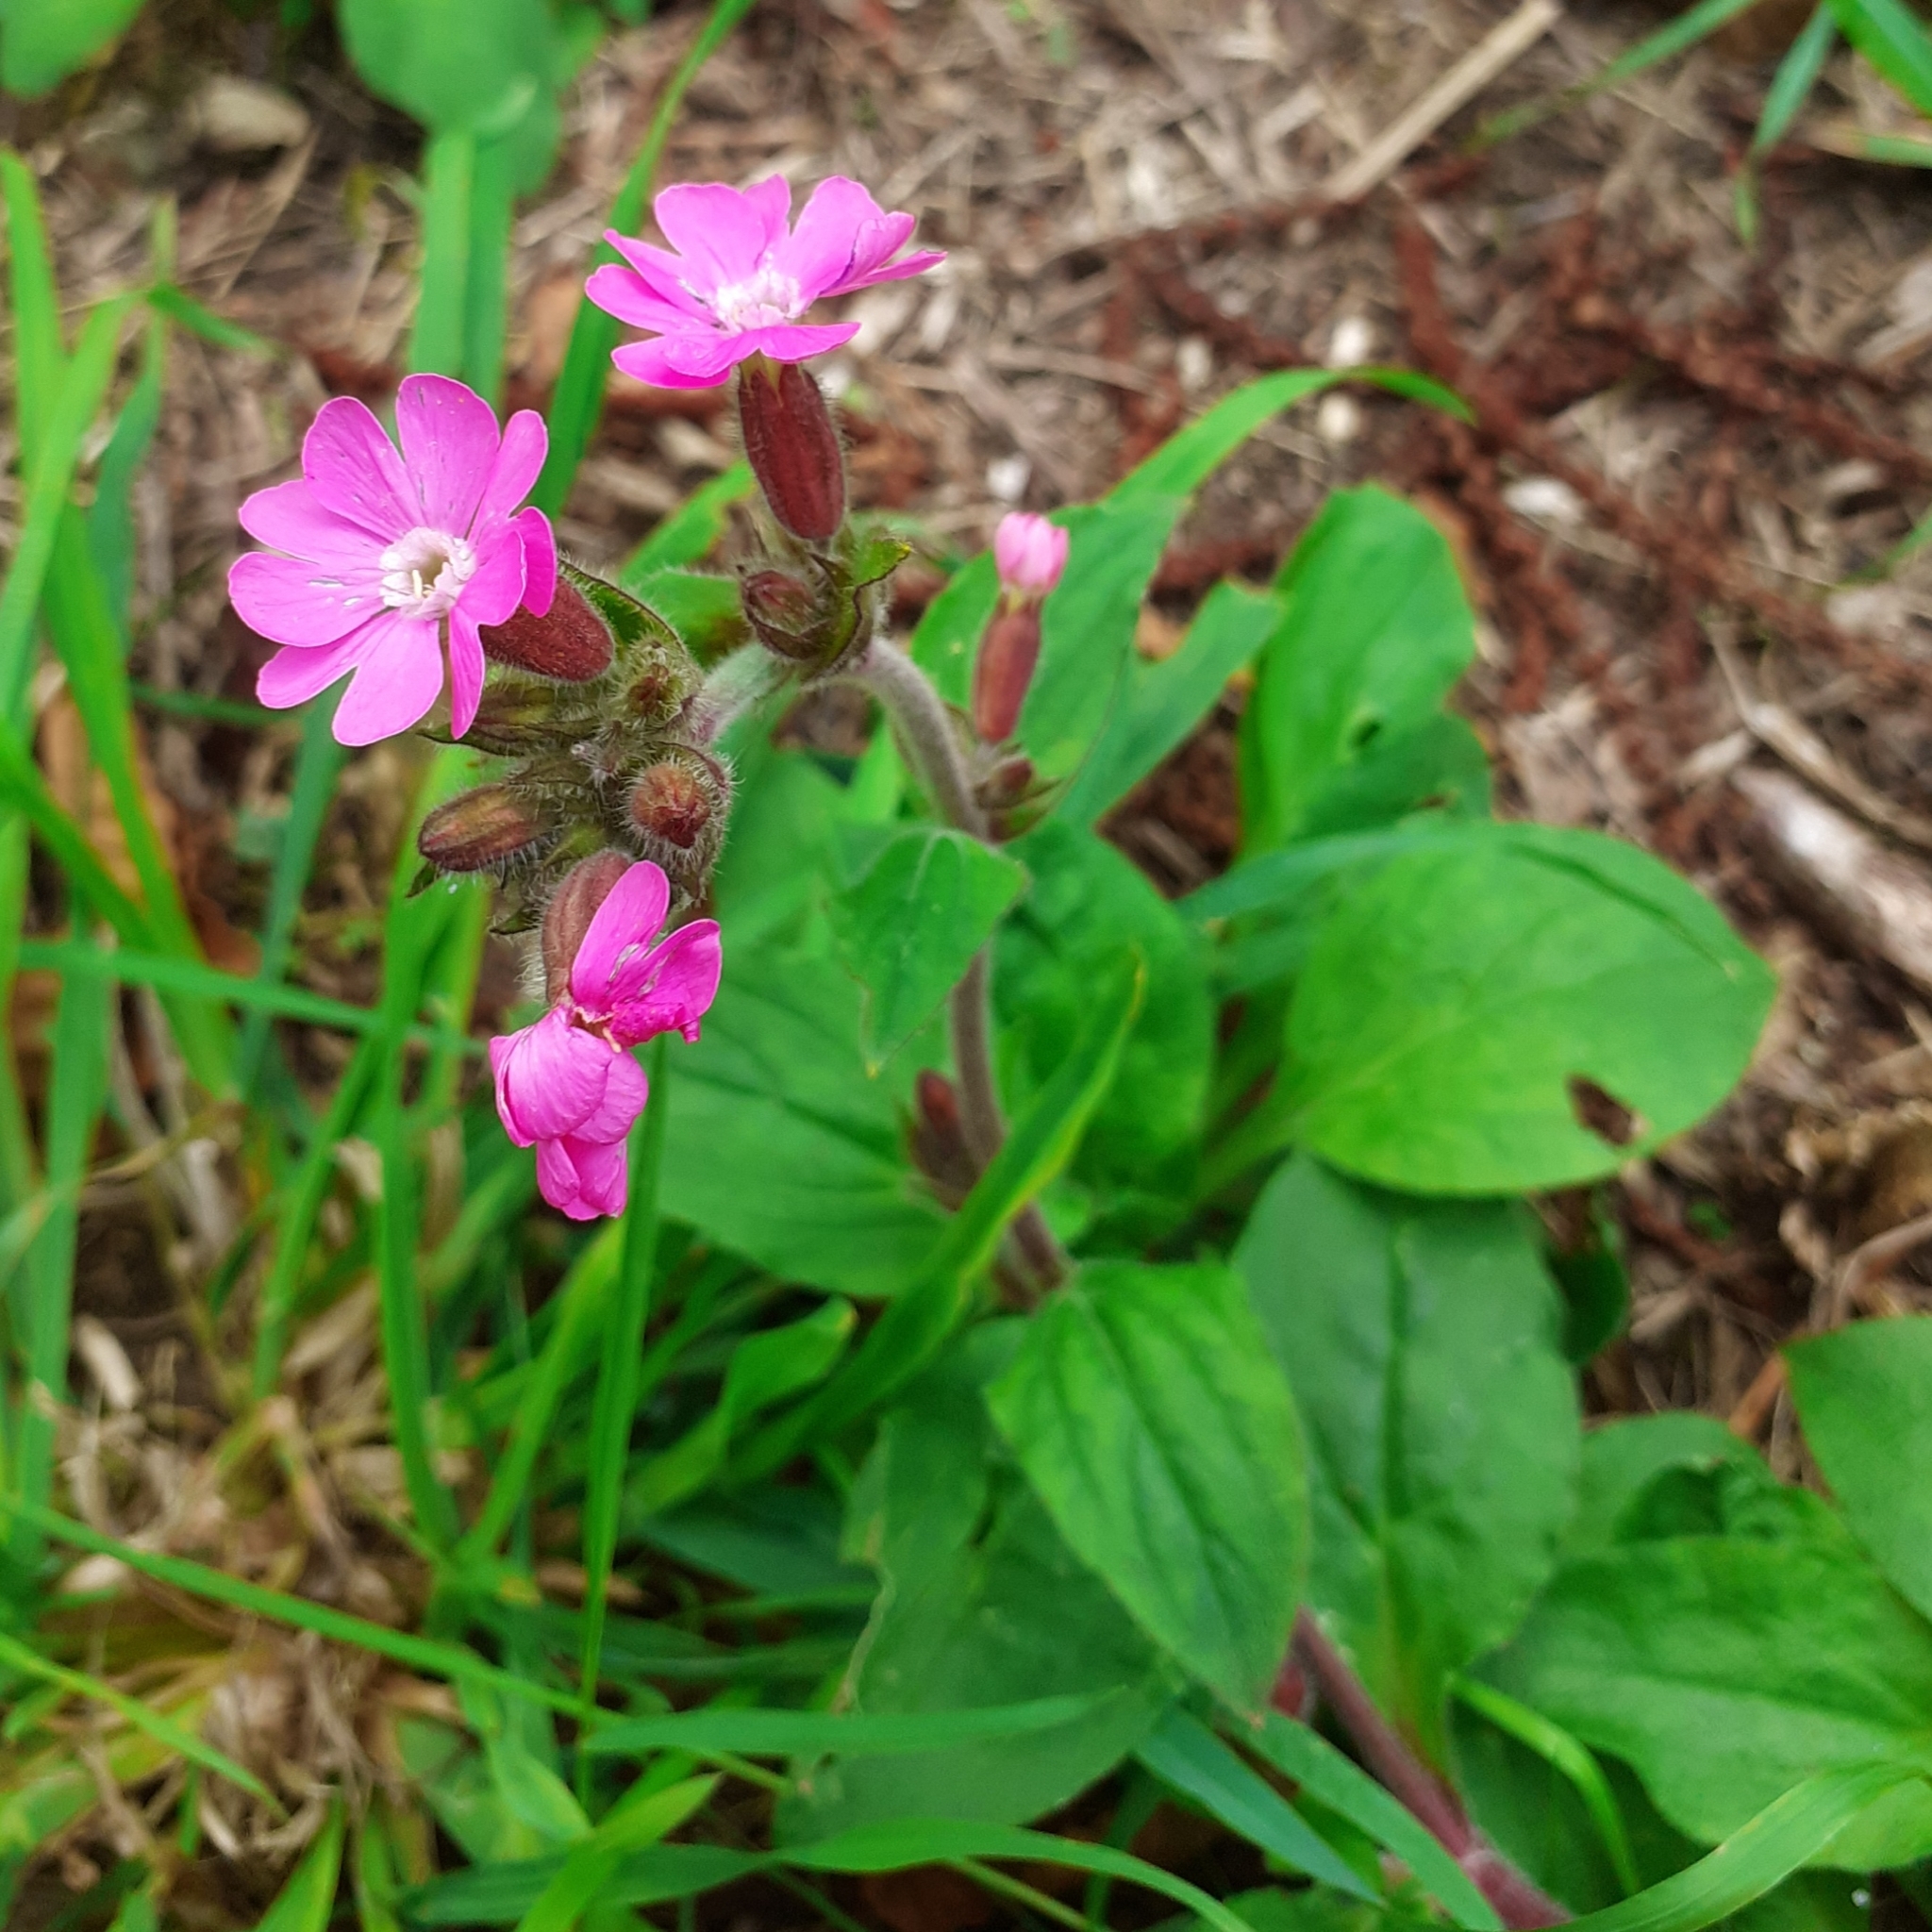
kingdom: Plantae
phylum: Tracheophyta
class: Magnoliopsida
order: Caryophyllales
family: Caryophyllaceae
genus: Silene
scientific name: Silene dioica
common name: Red campion
